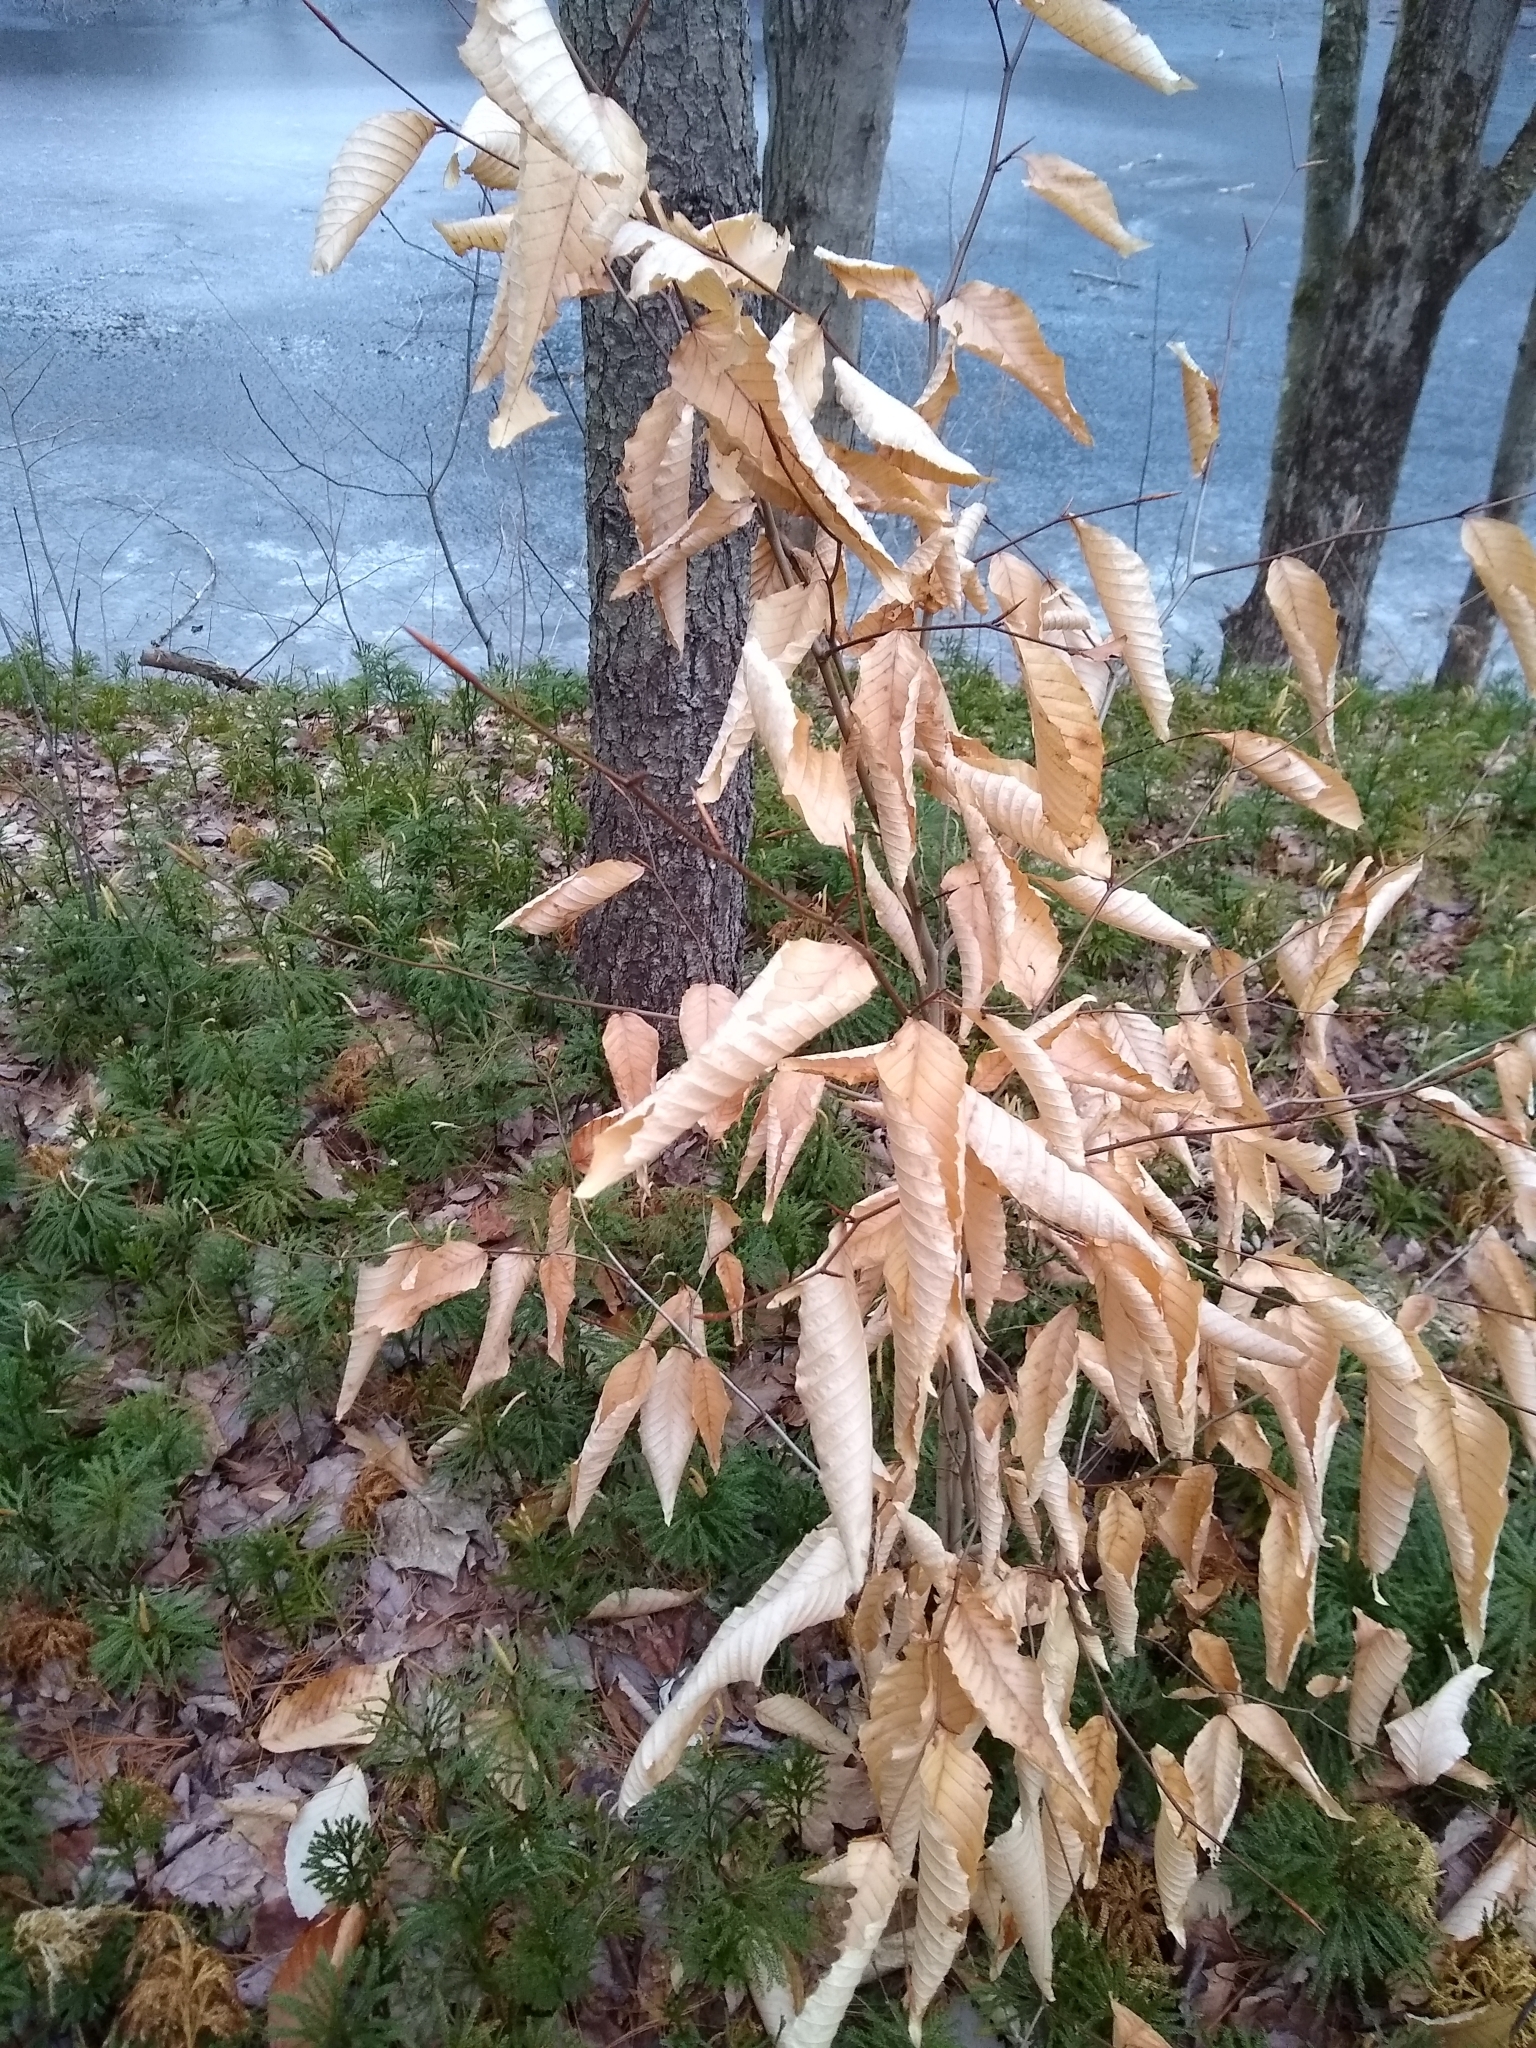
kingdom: Plantae
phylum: Tracheophyta
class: Magnoliopsida
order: Fagales
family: Fagaceae
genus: Fagus
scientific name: Fagus grandifolia
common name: American beech
